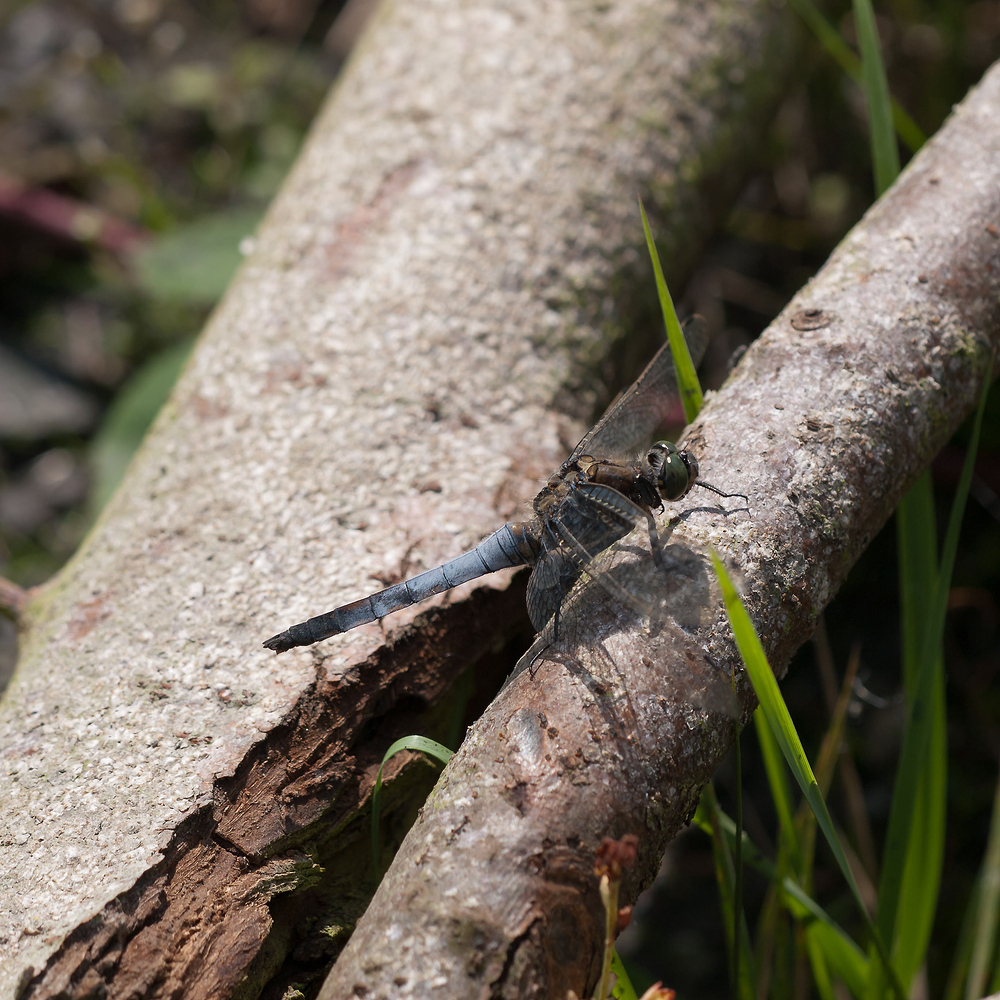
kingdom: Animalia
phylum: Arthropoda
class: Insecta
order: Odonata
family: Libellulidae
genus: Orthetrum
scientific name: Orthetrum cancellatum
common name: Black-tailed skimmer
